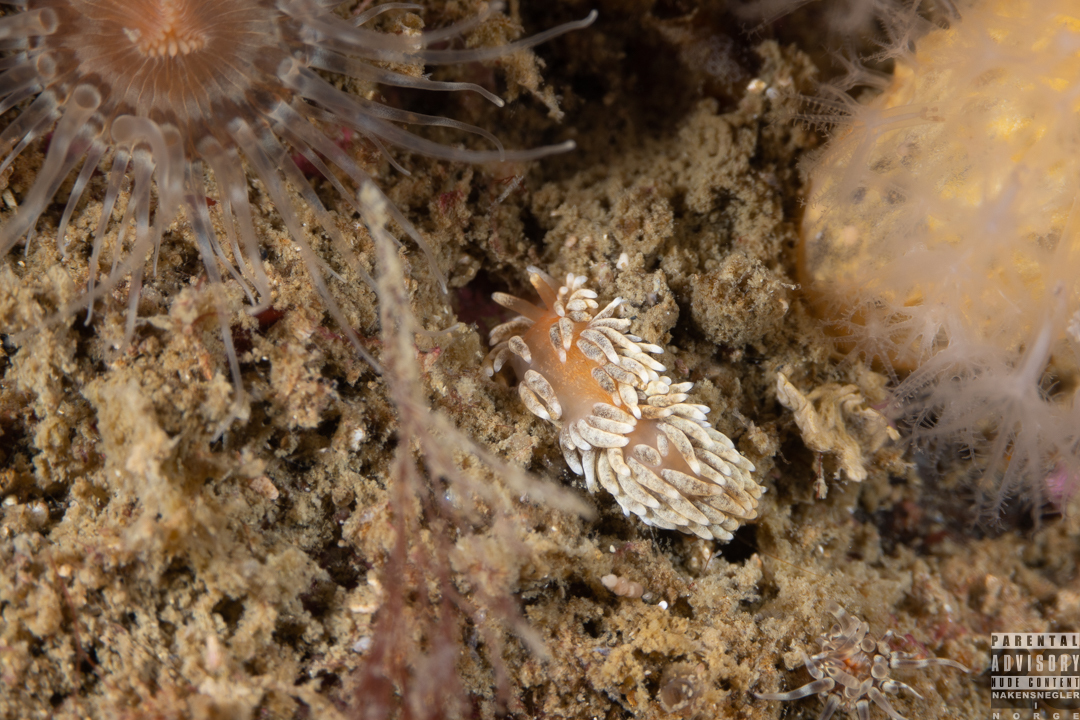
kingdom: Animalia
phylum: Mollusca
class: Gastropoda
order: Nudibranchia
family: Aeolidiidae
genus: Aeolidiella
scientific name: Aeolidiella glauca
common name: Orange-brown aeolid
